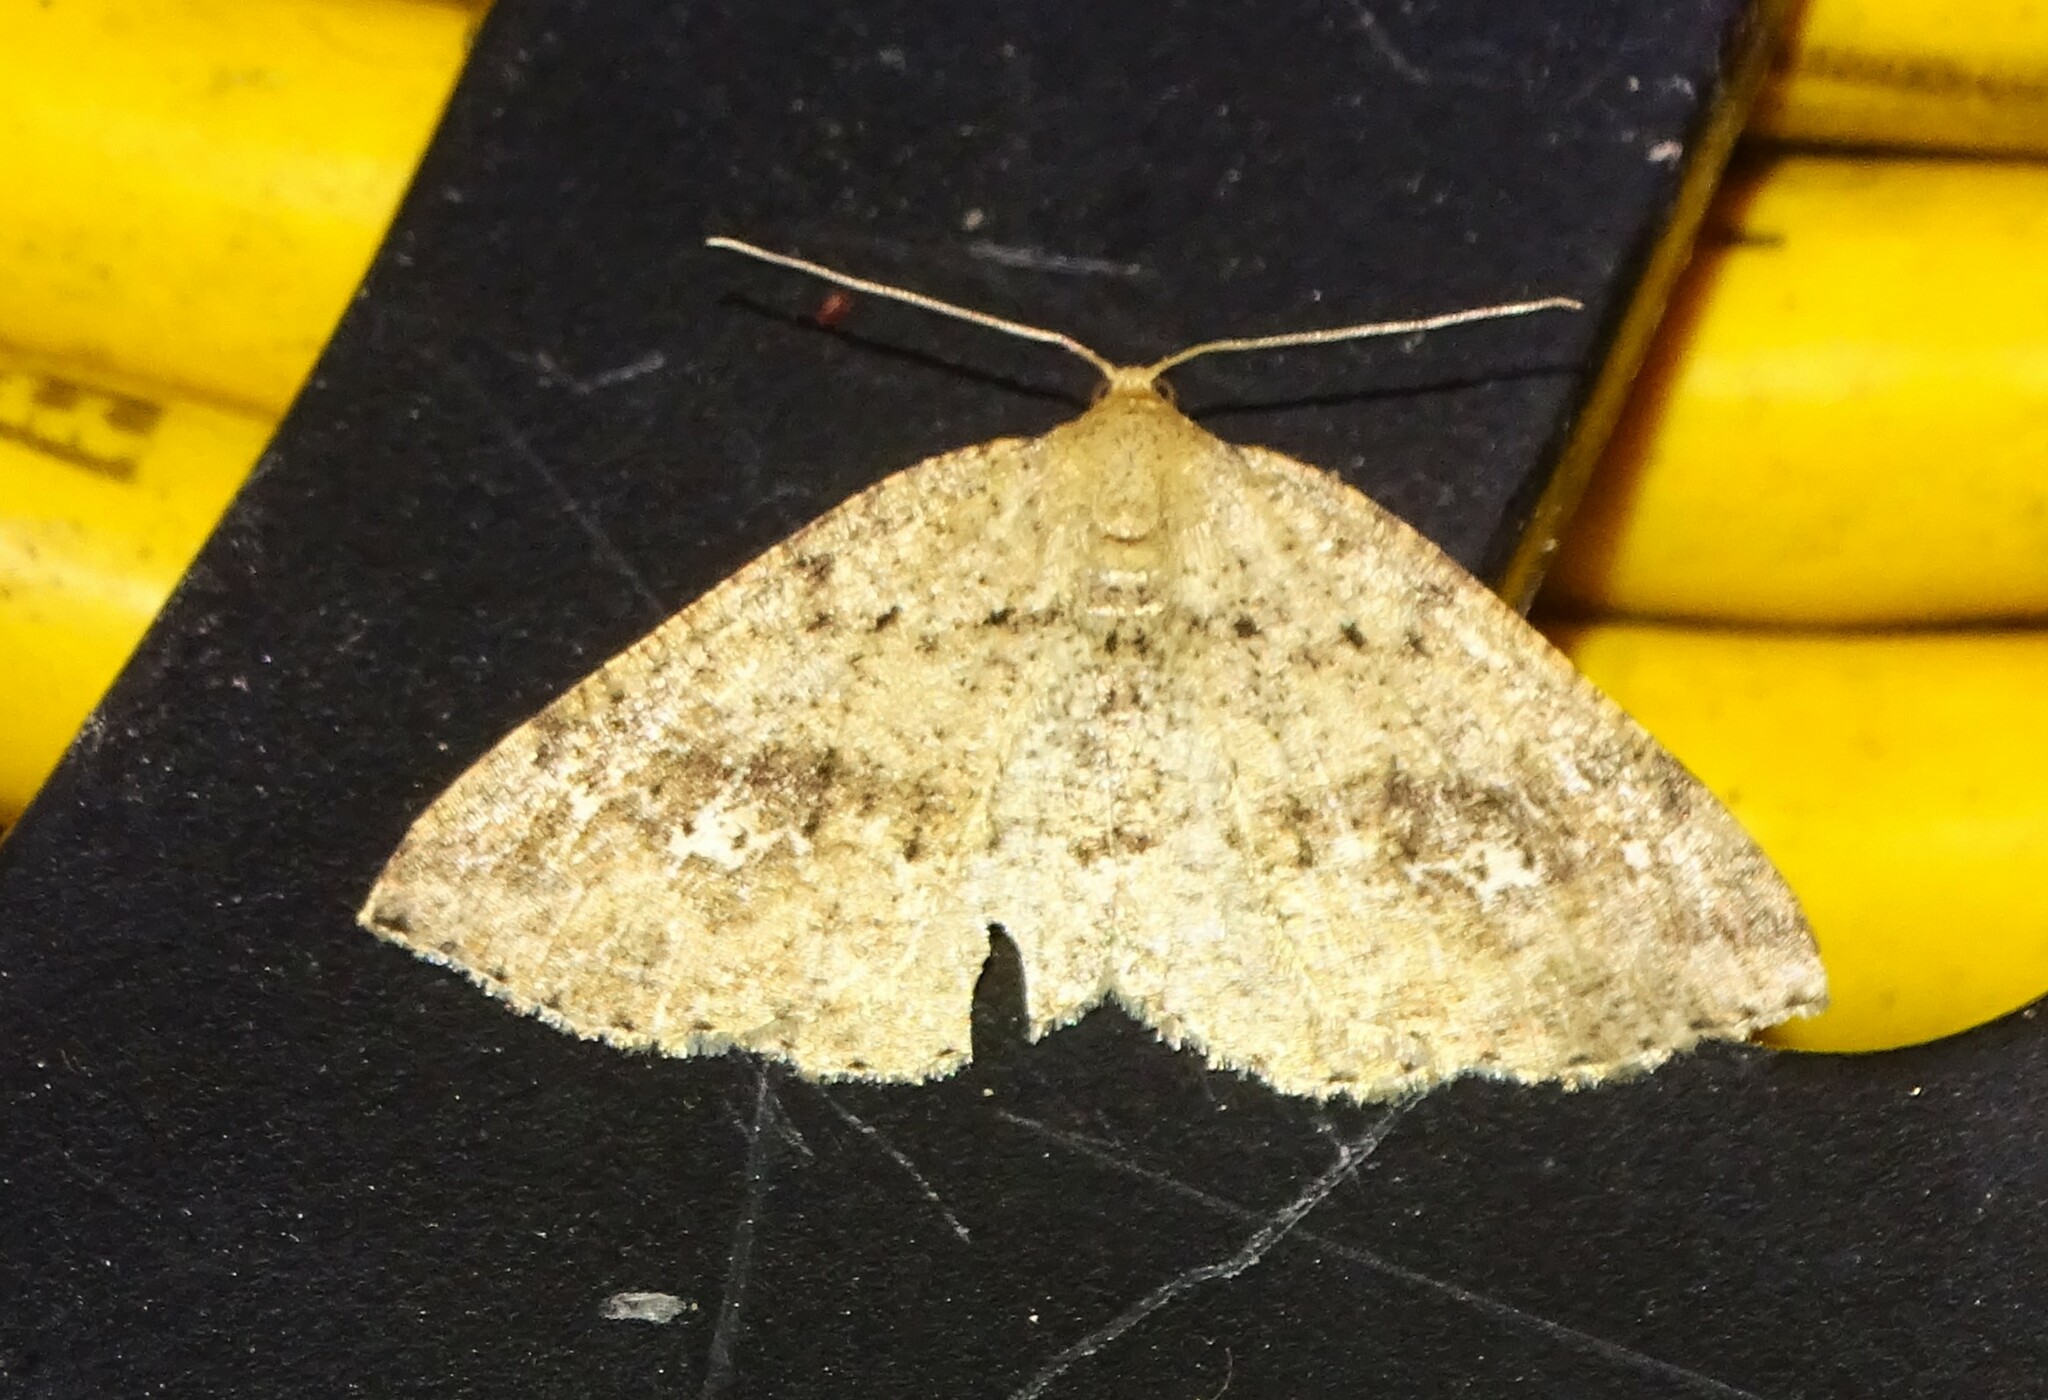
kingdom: Animalia
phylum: Arthropoda
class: Insecta
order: Lepidoptera
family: Geometridae
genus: Homochlodes
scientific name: Homochlodes fritillaria
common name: Pale homochlodes
